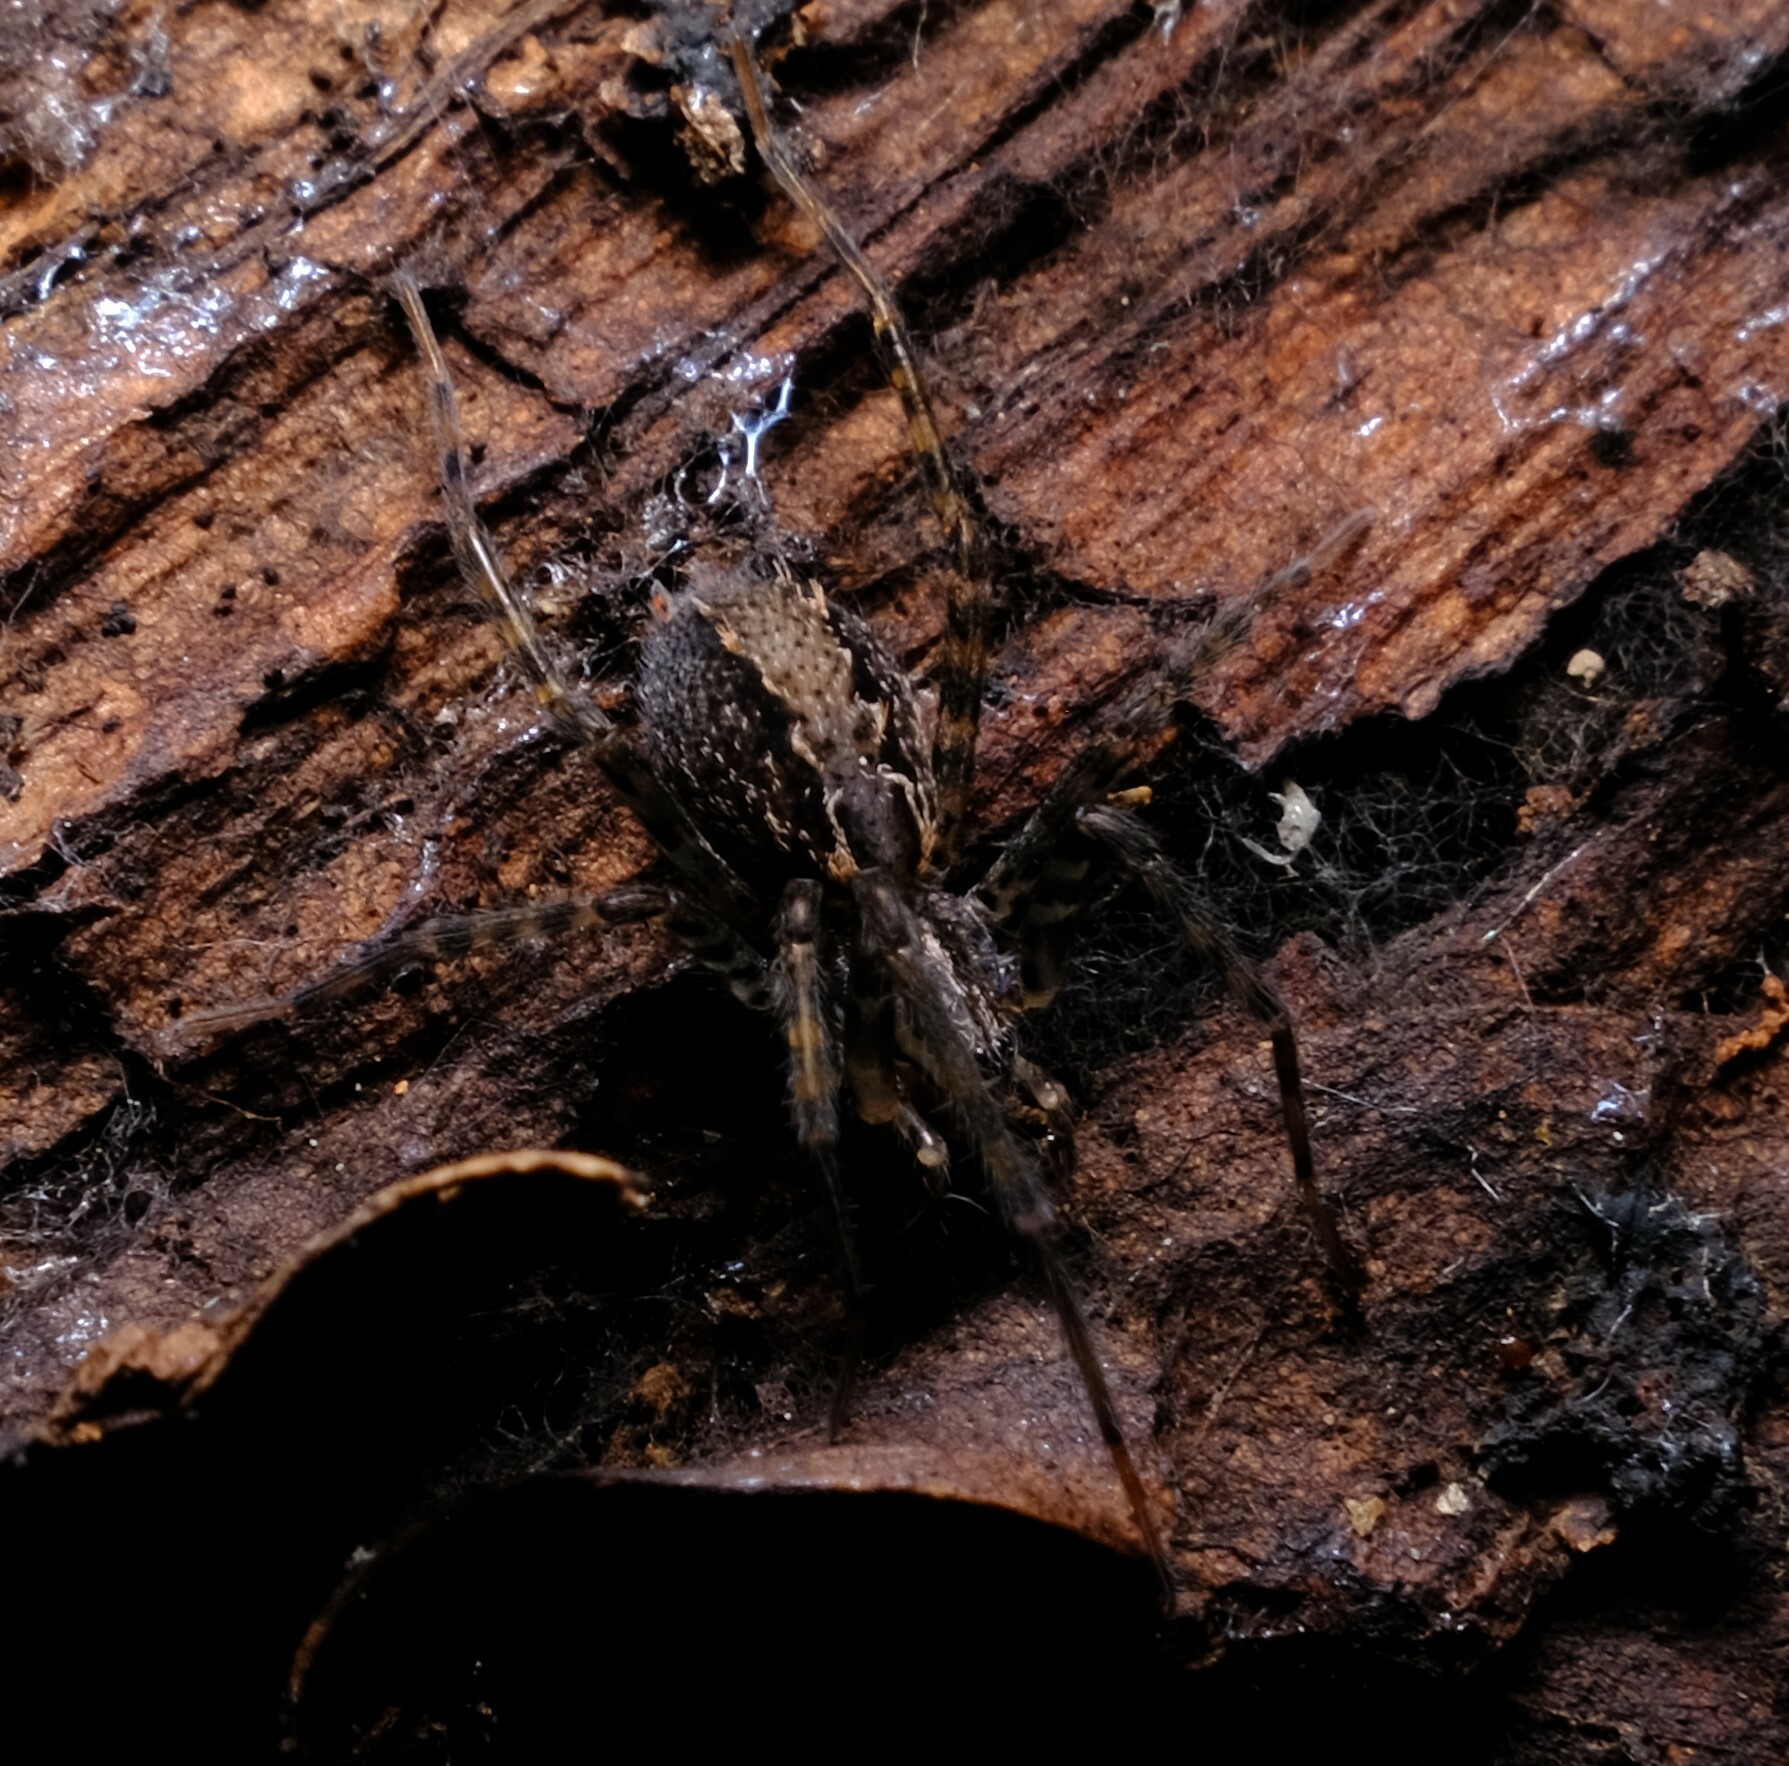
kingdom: Animalia
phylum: Arthropoda
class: Arachnida
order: Araneae
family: Stiphidiidae
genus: Stiphidion
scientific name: Stiphidion facetum
